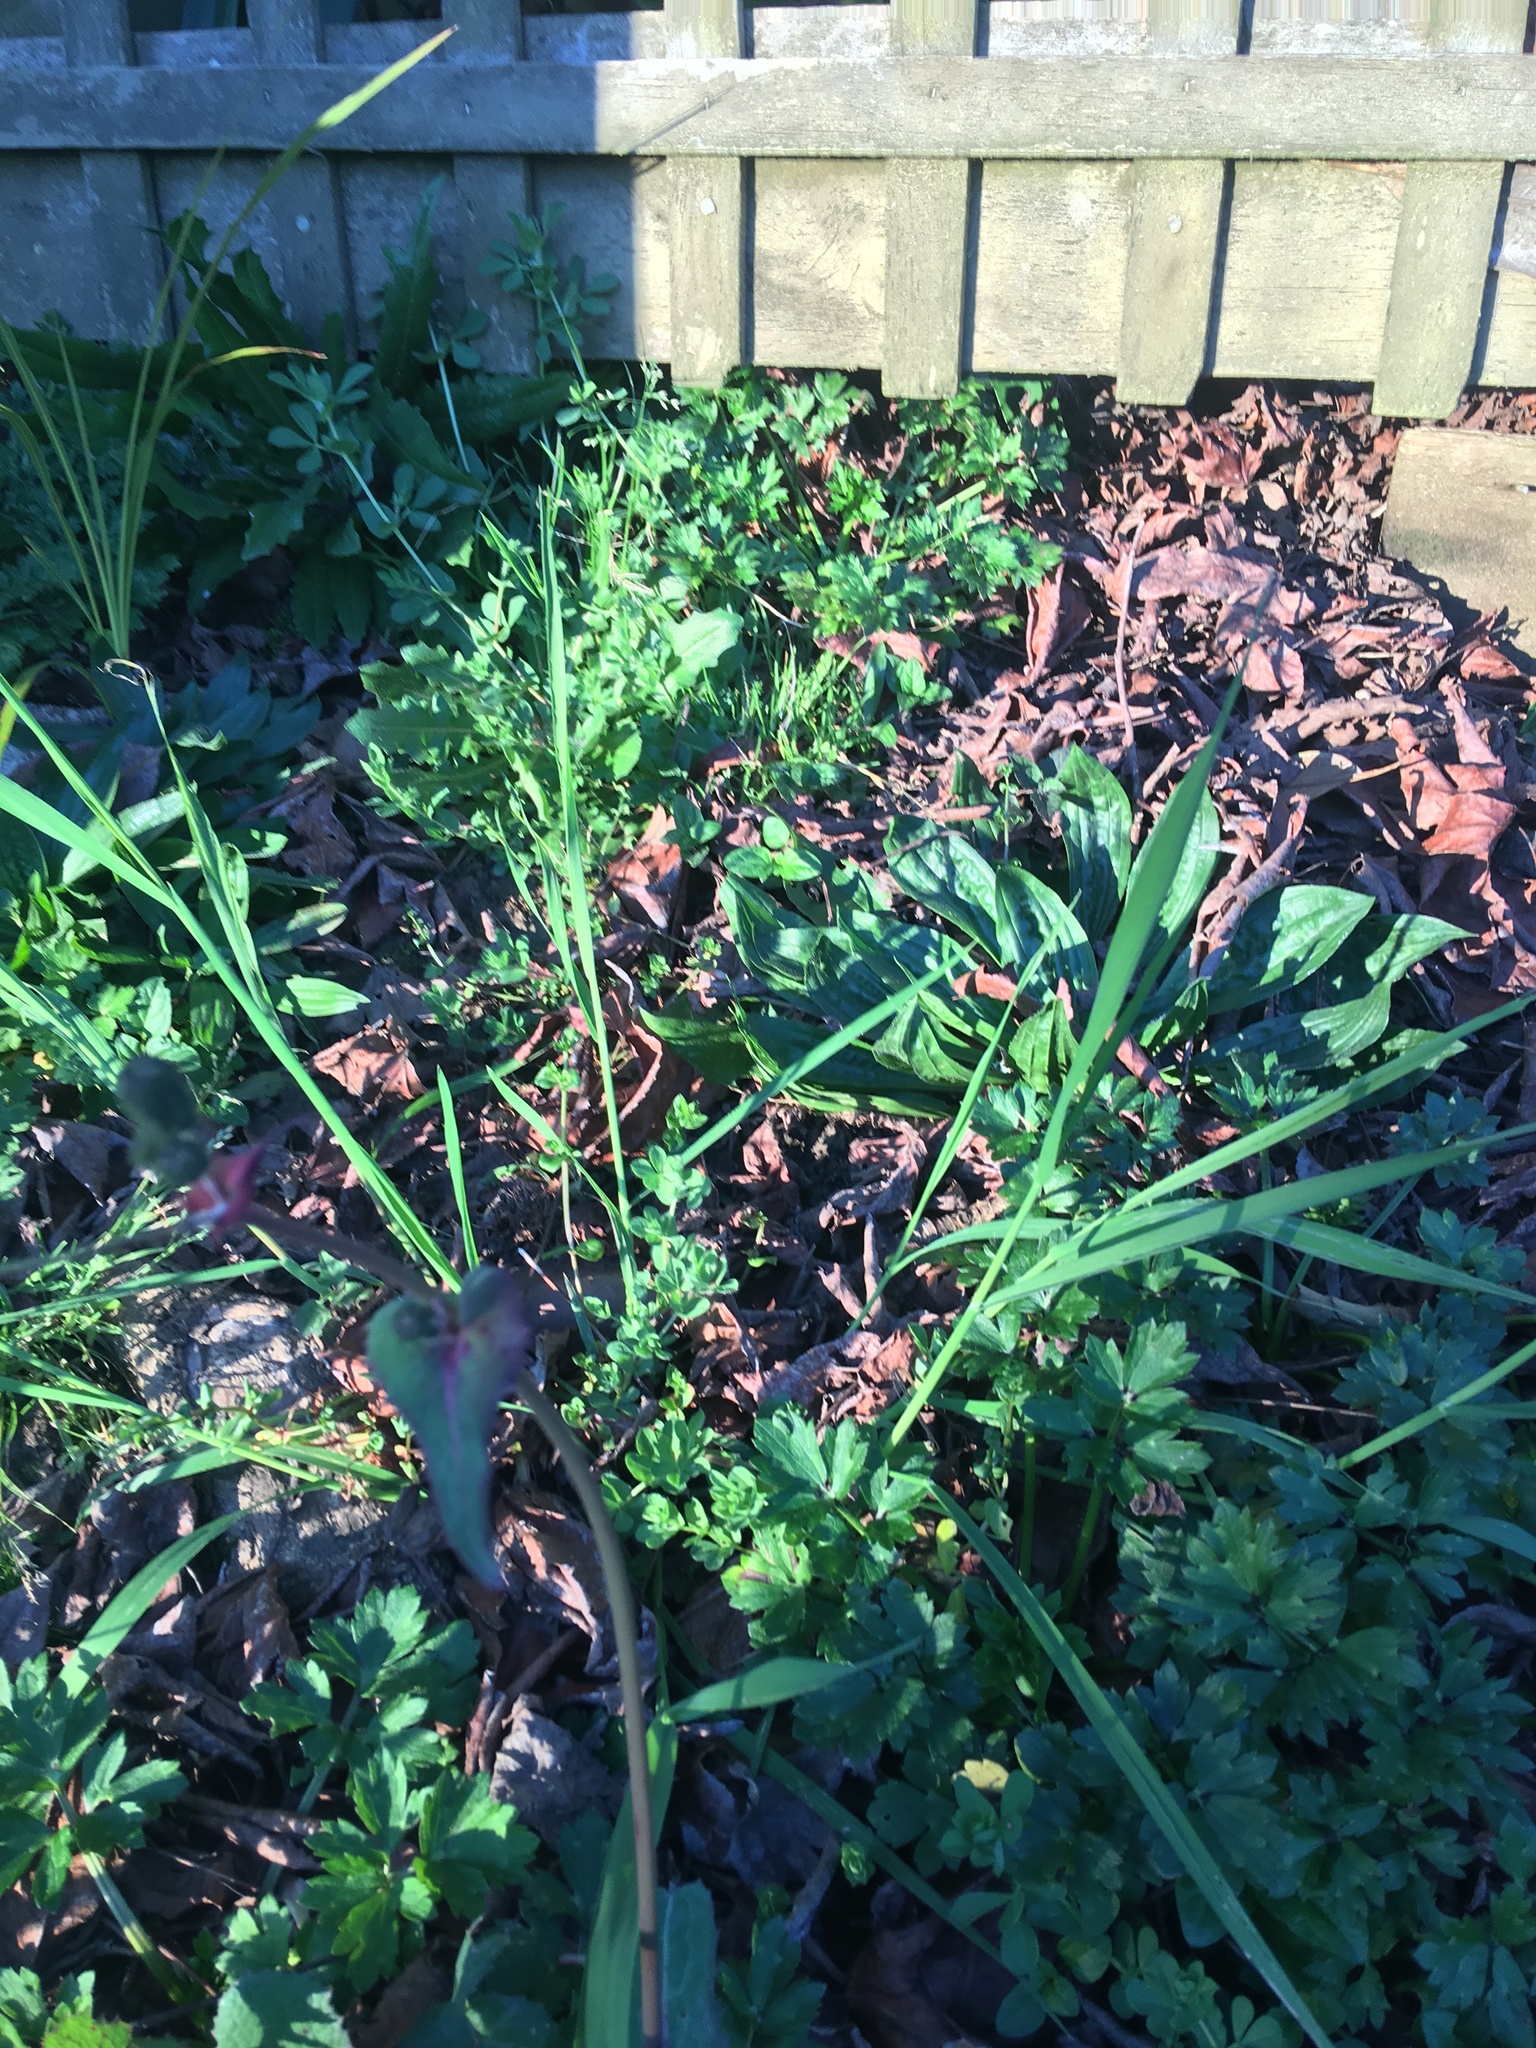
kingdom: Plantae
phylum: Tracheophyta
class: Magnoliopsida
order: Asterales
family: Asteraceae
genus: Sonchus
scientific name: Sonchus oleraceus
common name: Common sowthistle
